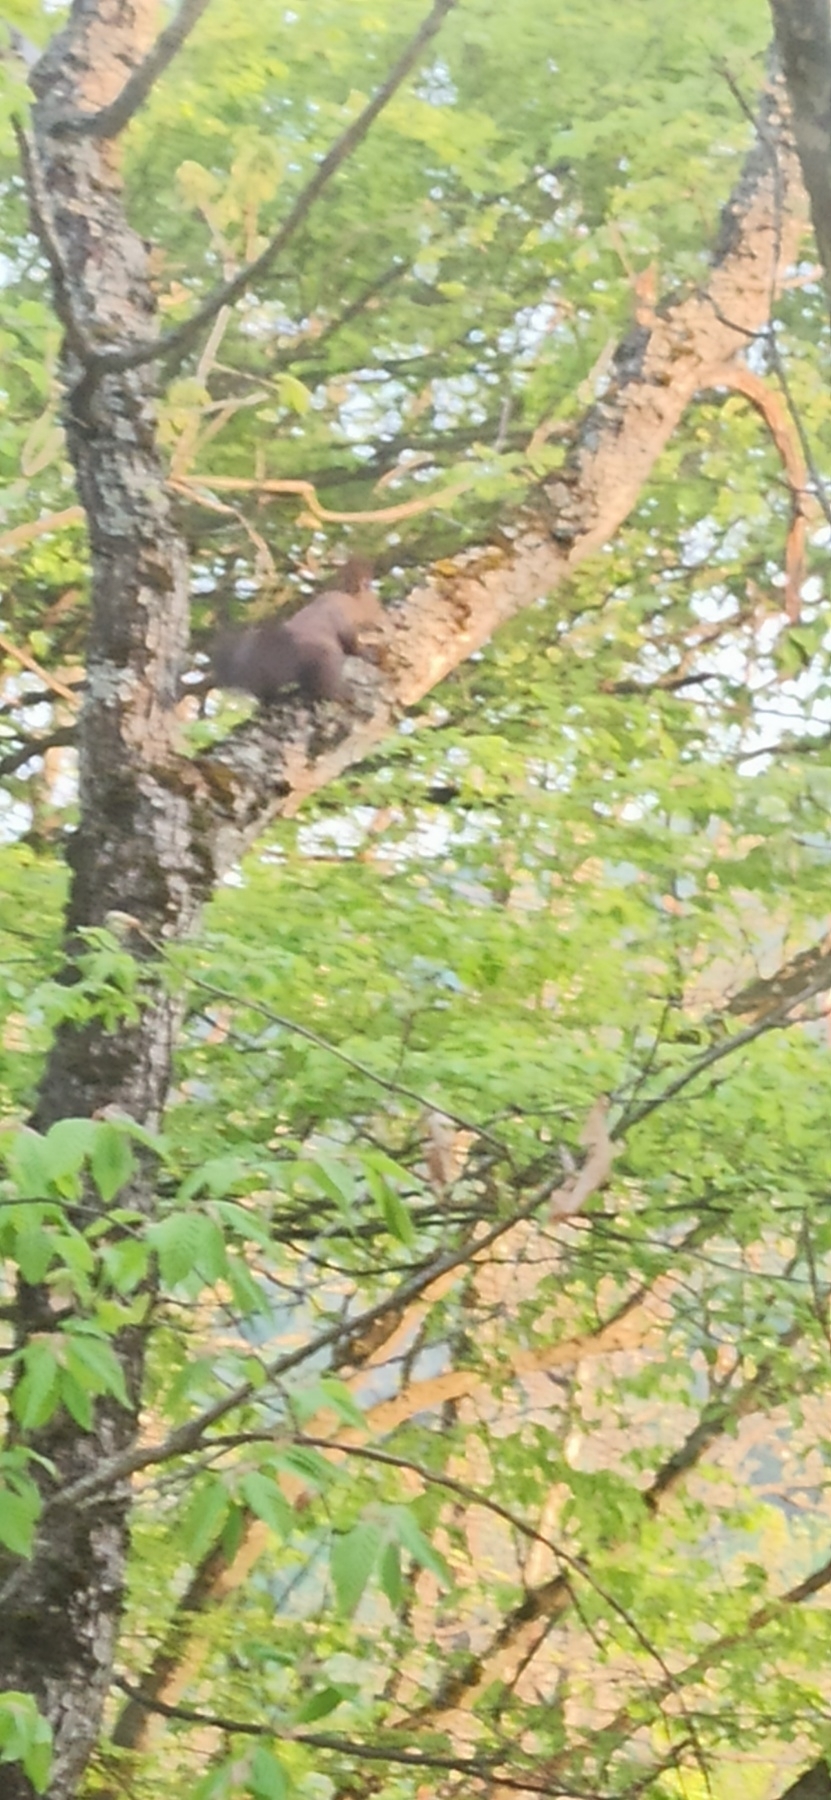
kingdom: Animalia
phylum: Chordata
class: Mammalia
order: Rodentia
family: Sciuridae
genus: Sciurus
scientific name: Sciurus vulgaris
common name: Eurasian red squirrel
